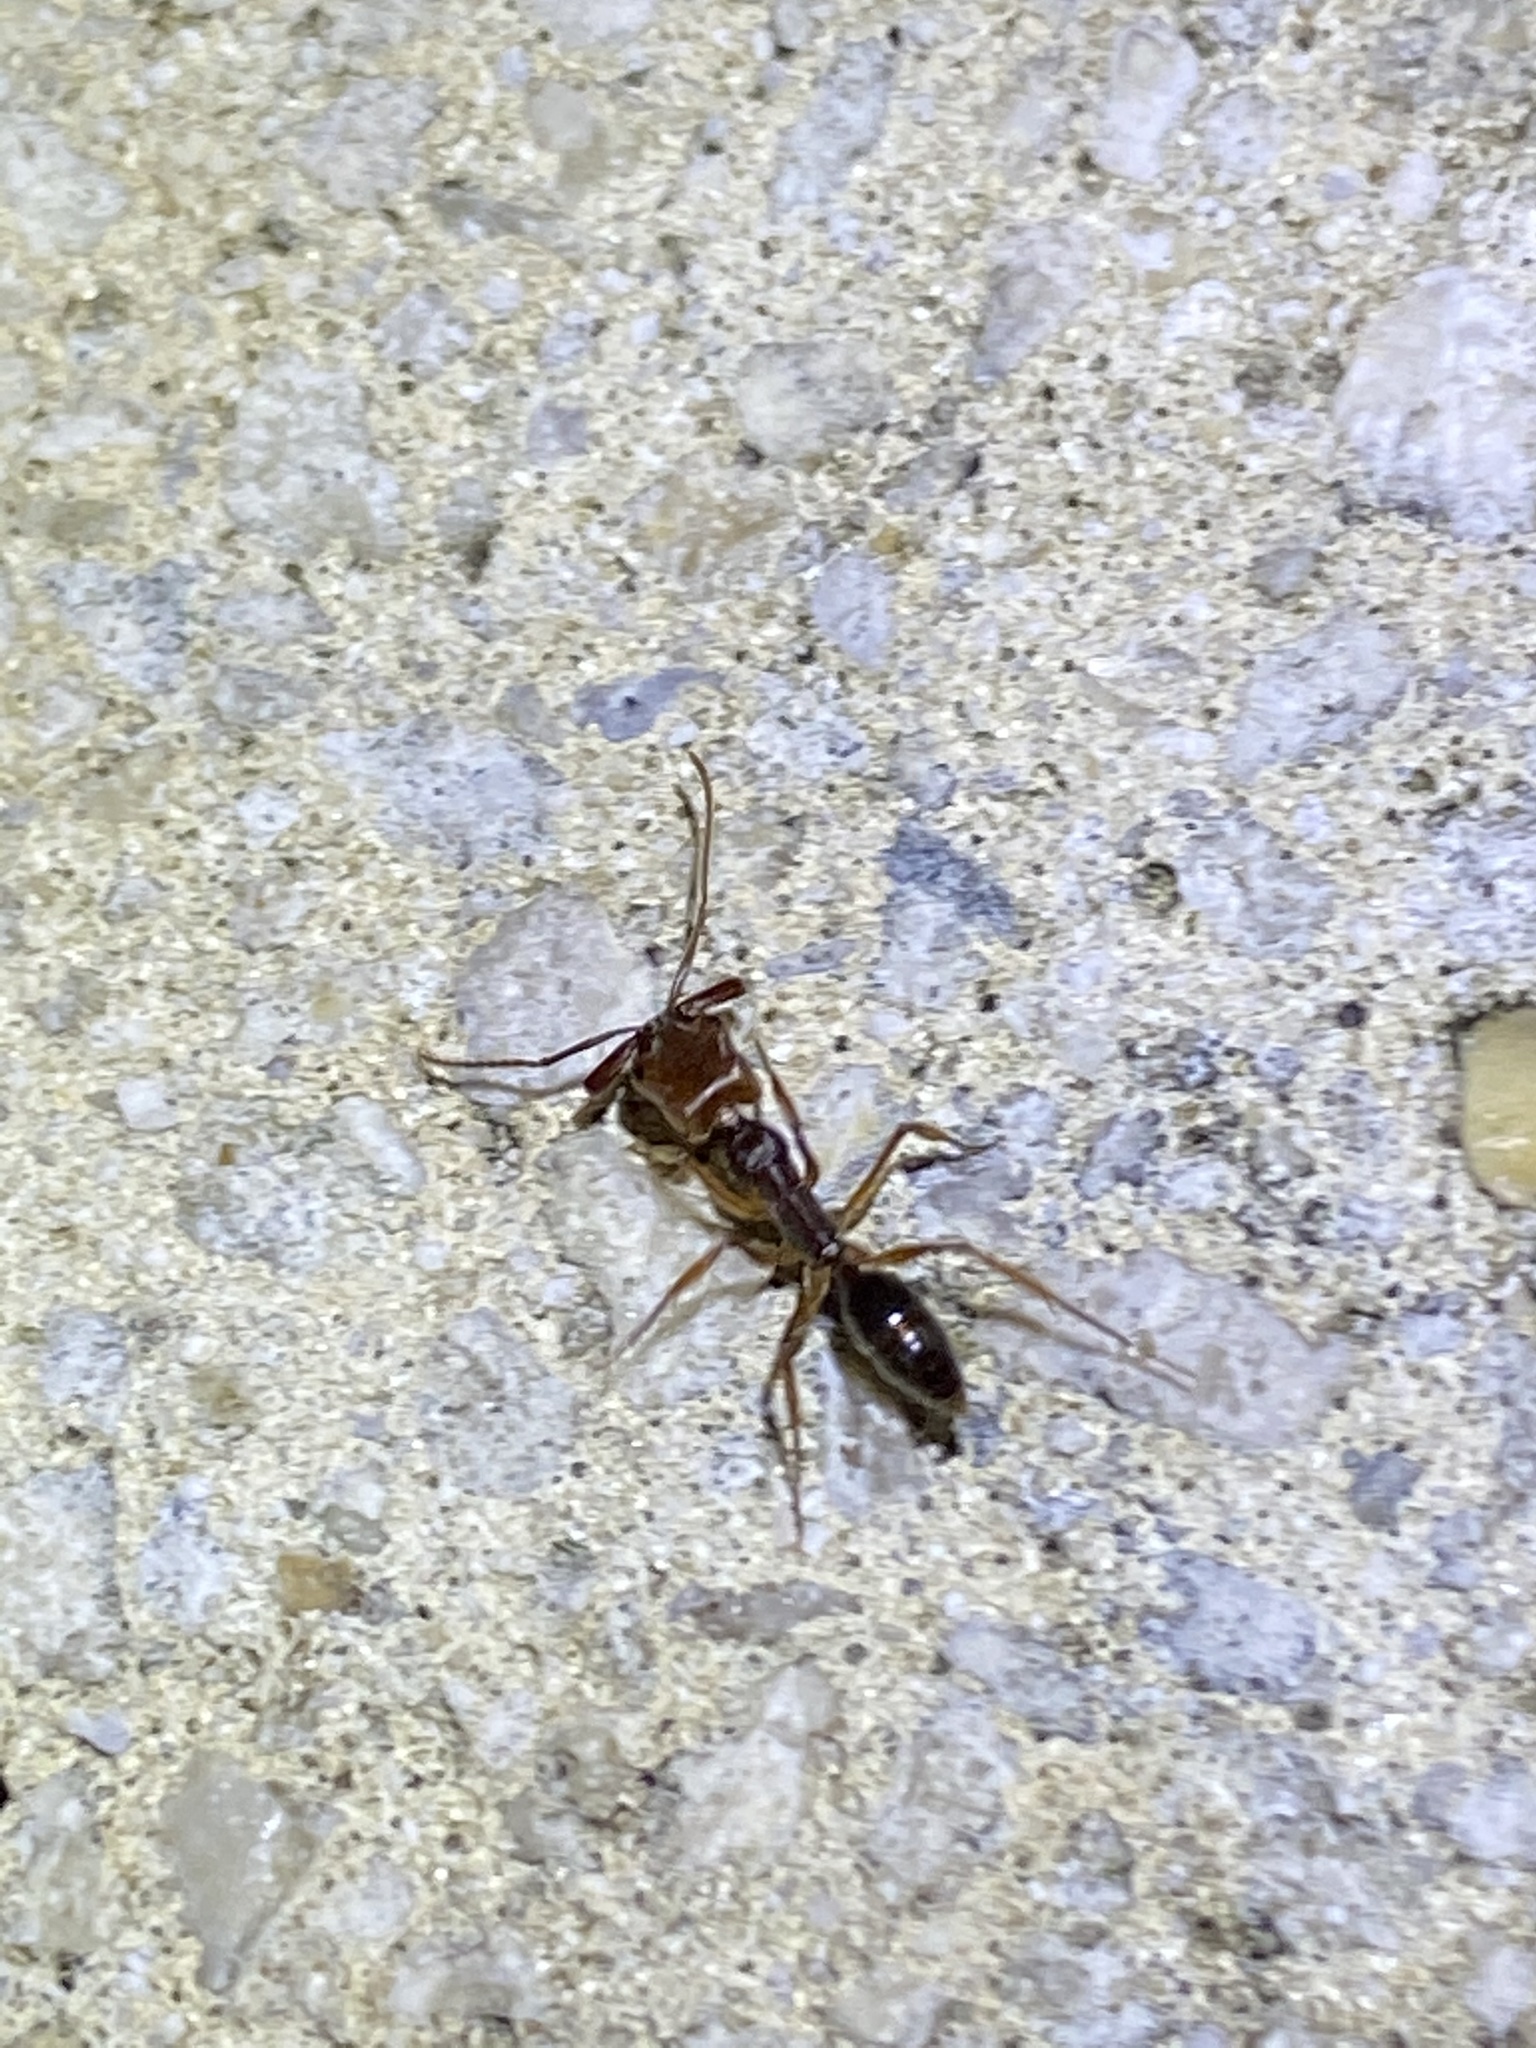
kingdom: Animalia
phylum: Arthropoda
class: Insecta
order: Hymenoptera
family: Formicidae
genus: Odontomachus
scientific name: Odontomachus ruginodis
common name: Trapjaw ant
